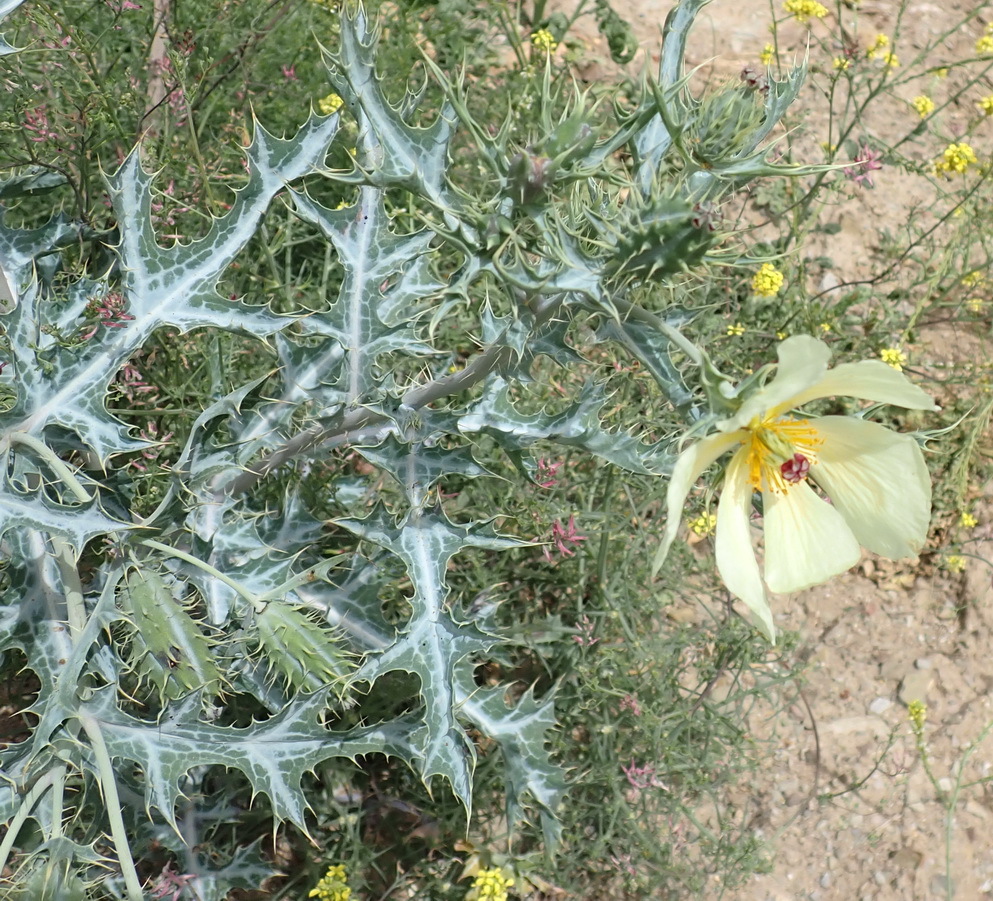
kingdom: Plantae
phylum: Tracheophyta
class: Magnoliopsida
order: Ranunculales
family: Papaveraceae
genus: Argemone
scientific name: Argemone ochroleuca
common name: White-flower mexican-poppy
